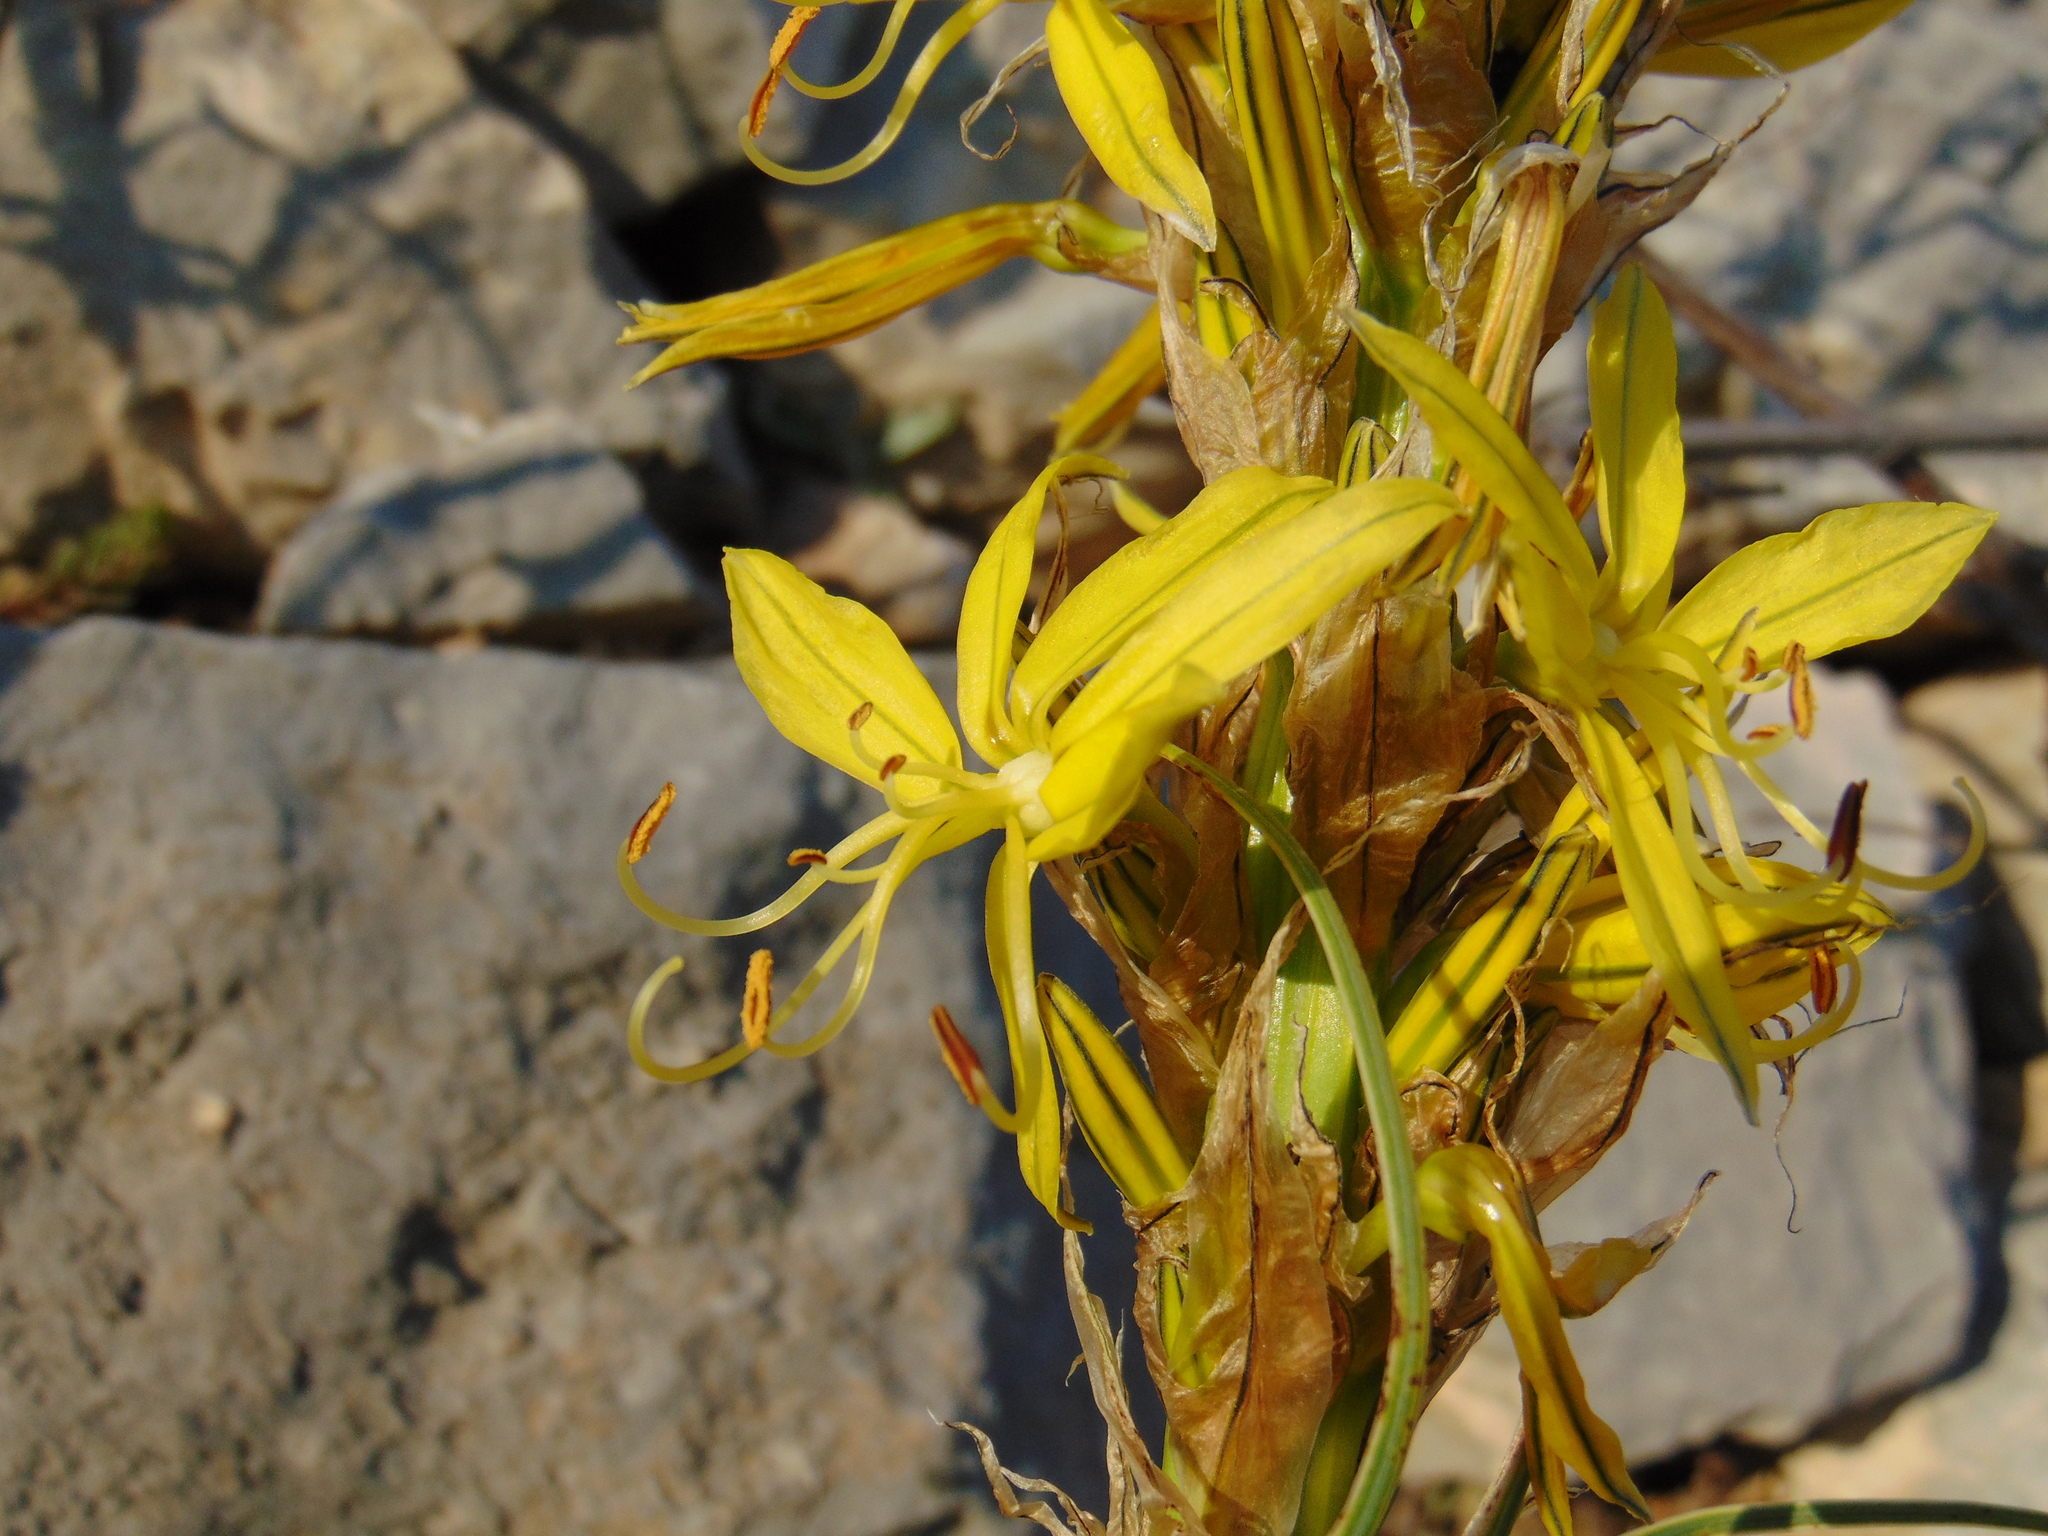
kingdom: Plantae
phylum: Tracheophyta
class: Liliopsida
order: Asparagales
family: Asphodelaceae
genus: Asphodeline
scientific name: Asphodeline lutea
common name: Yellow asphodel
